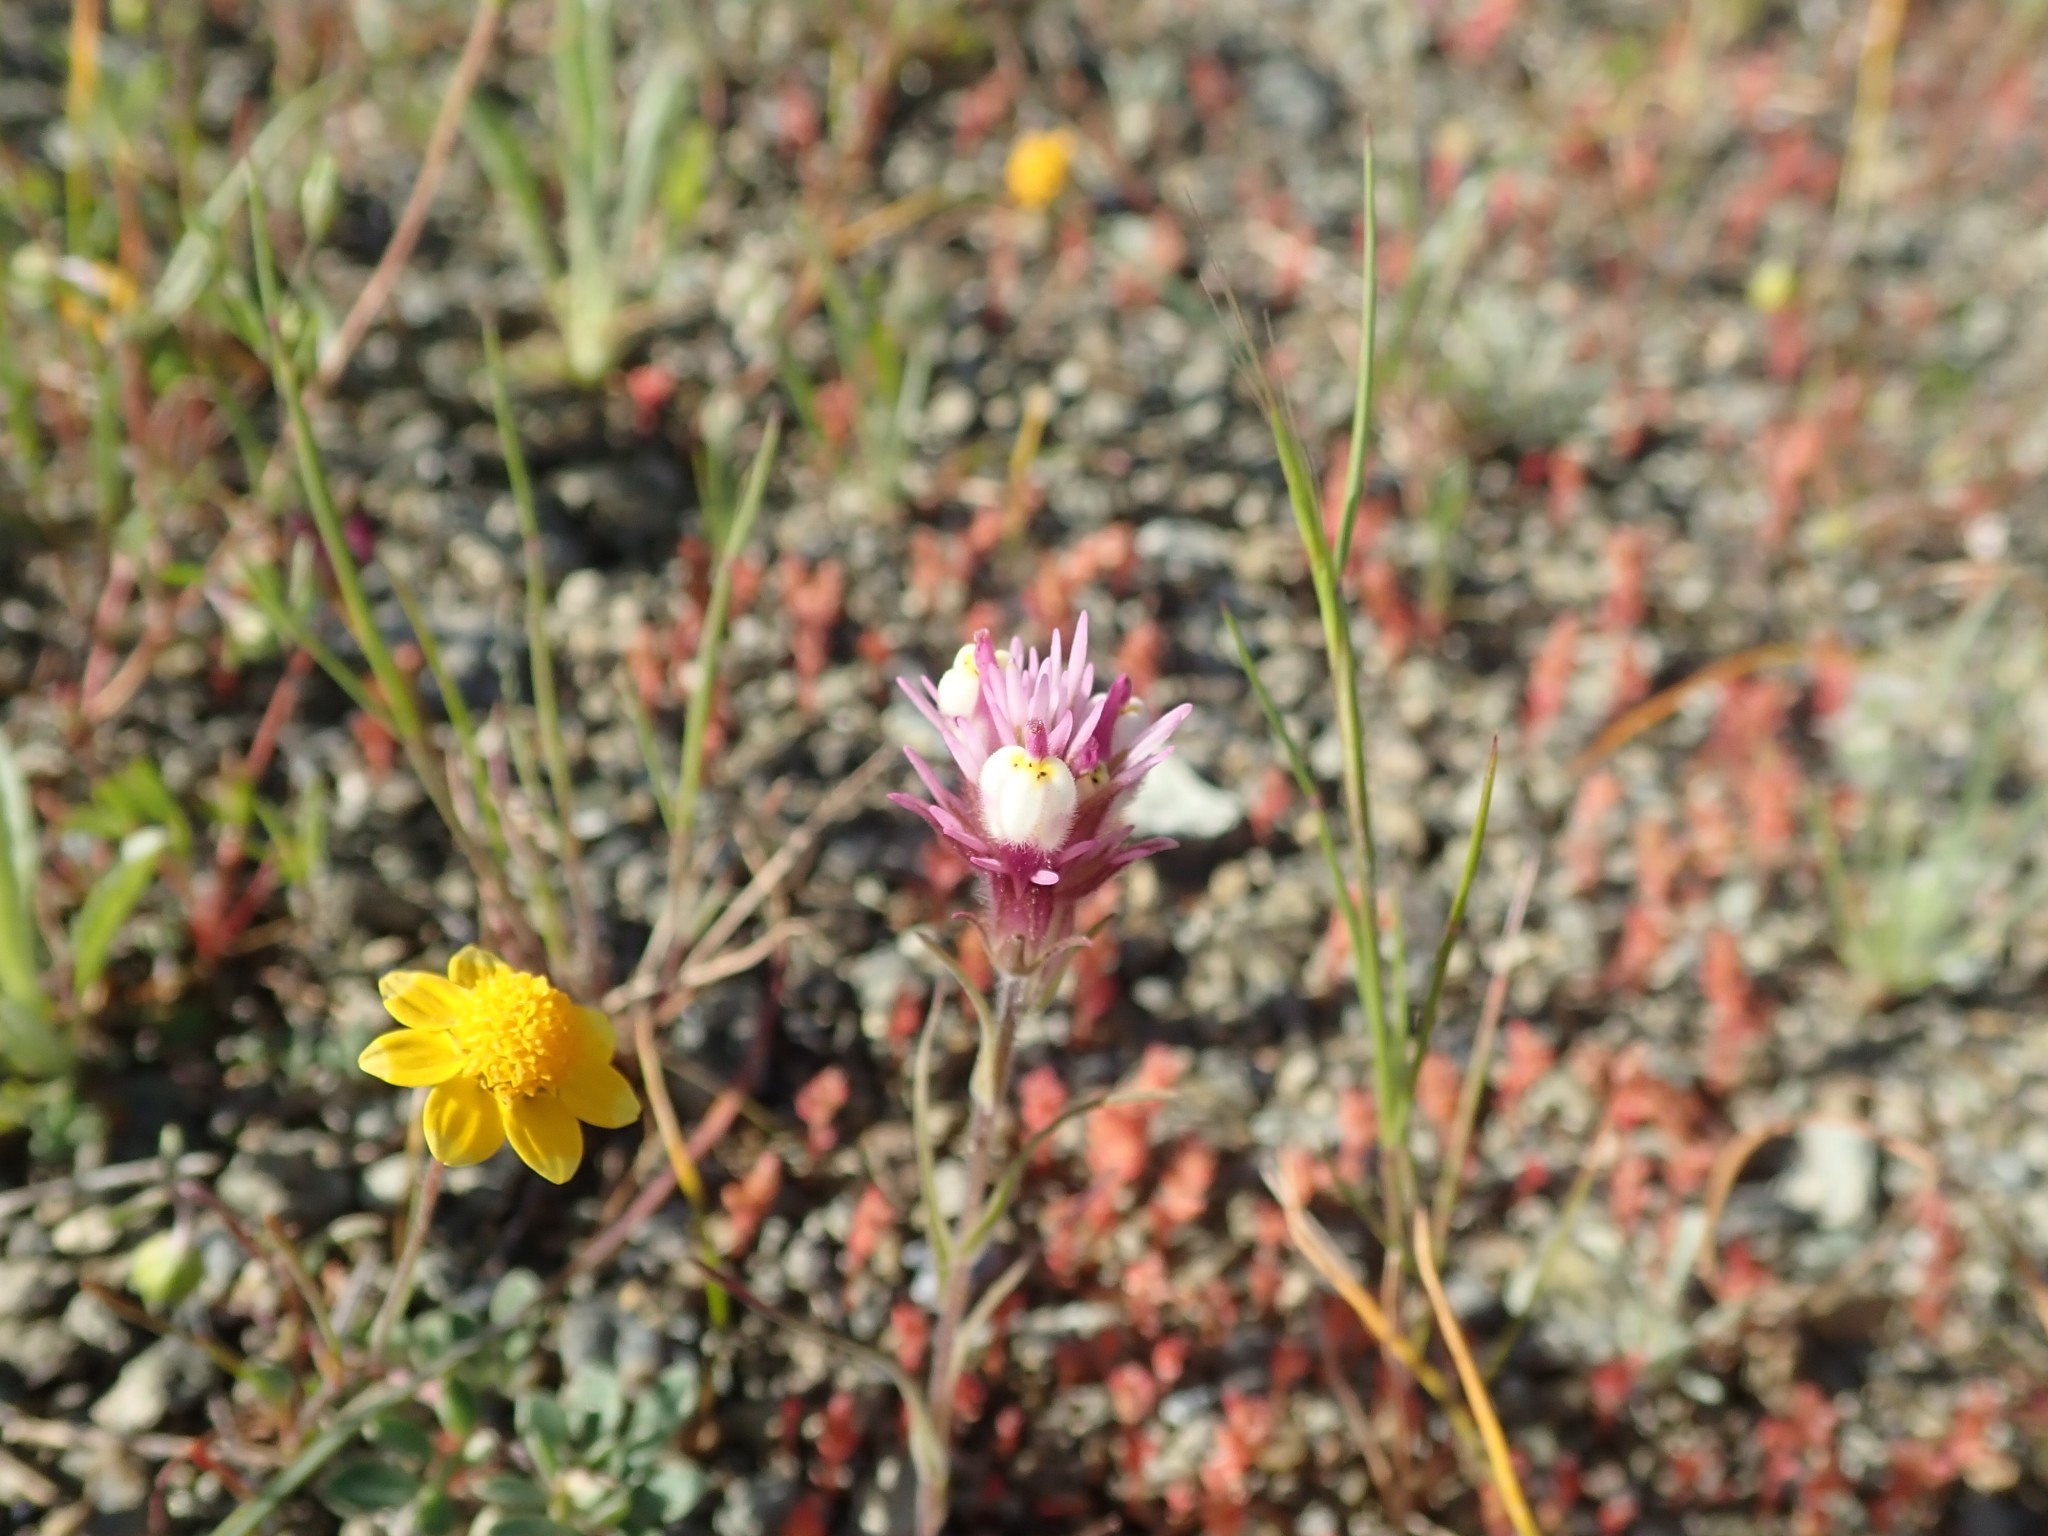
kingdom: Plantae
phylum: Tracheophyta
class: Magnoliopsida
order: Lamiales
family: Orobanchaceae
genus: Castilleja
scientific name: Castilleja densiflora
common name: Dense-flower indian paintbrush
